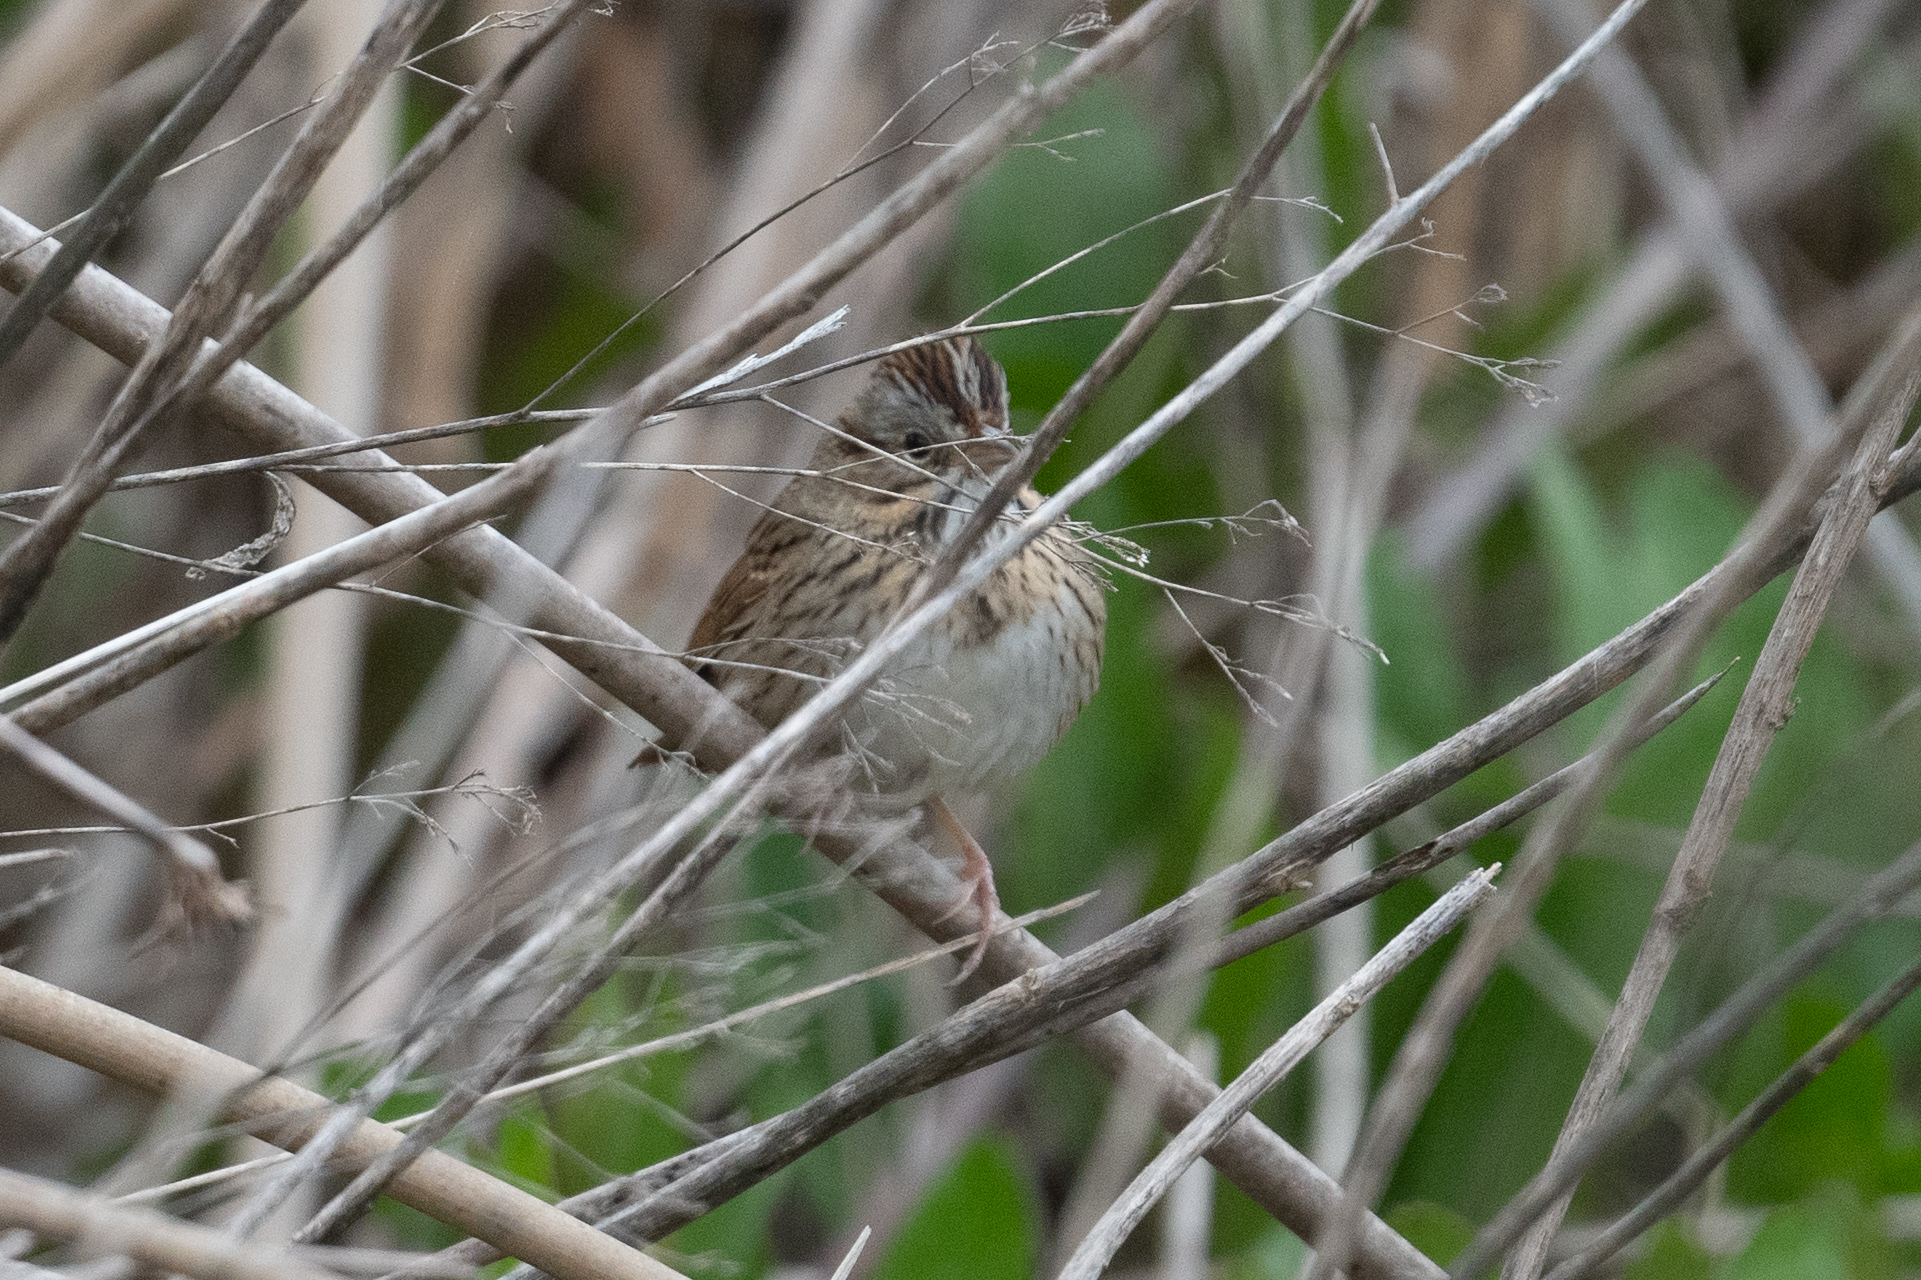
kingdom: Animalia
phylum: Chordata
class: Aves
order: Passeriformes
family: Passerellidae
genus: Melospiza
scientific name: Melospiza lincolnii
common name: Lincoln's sparrow
